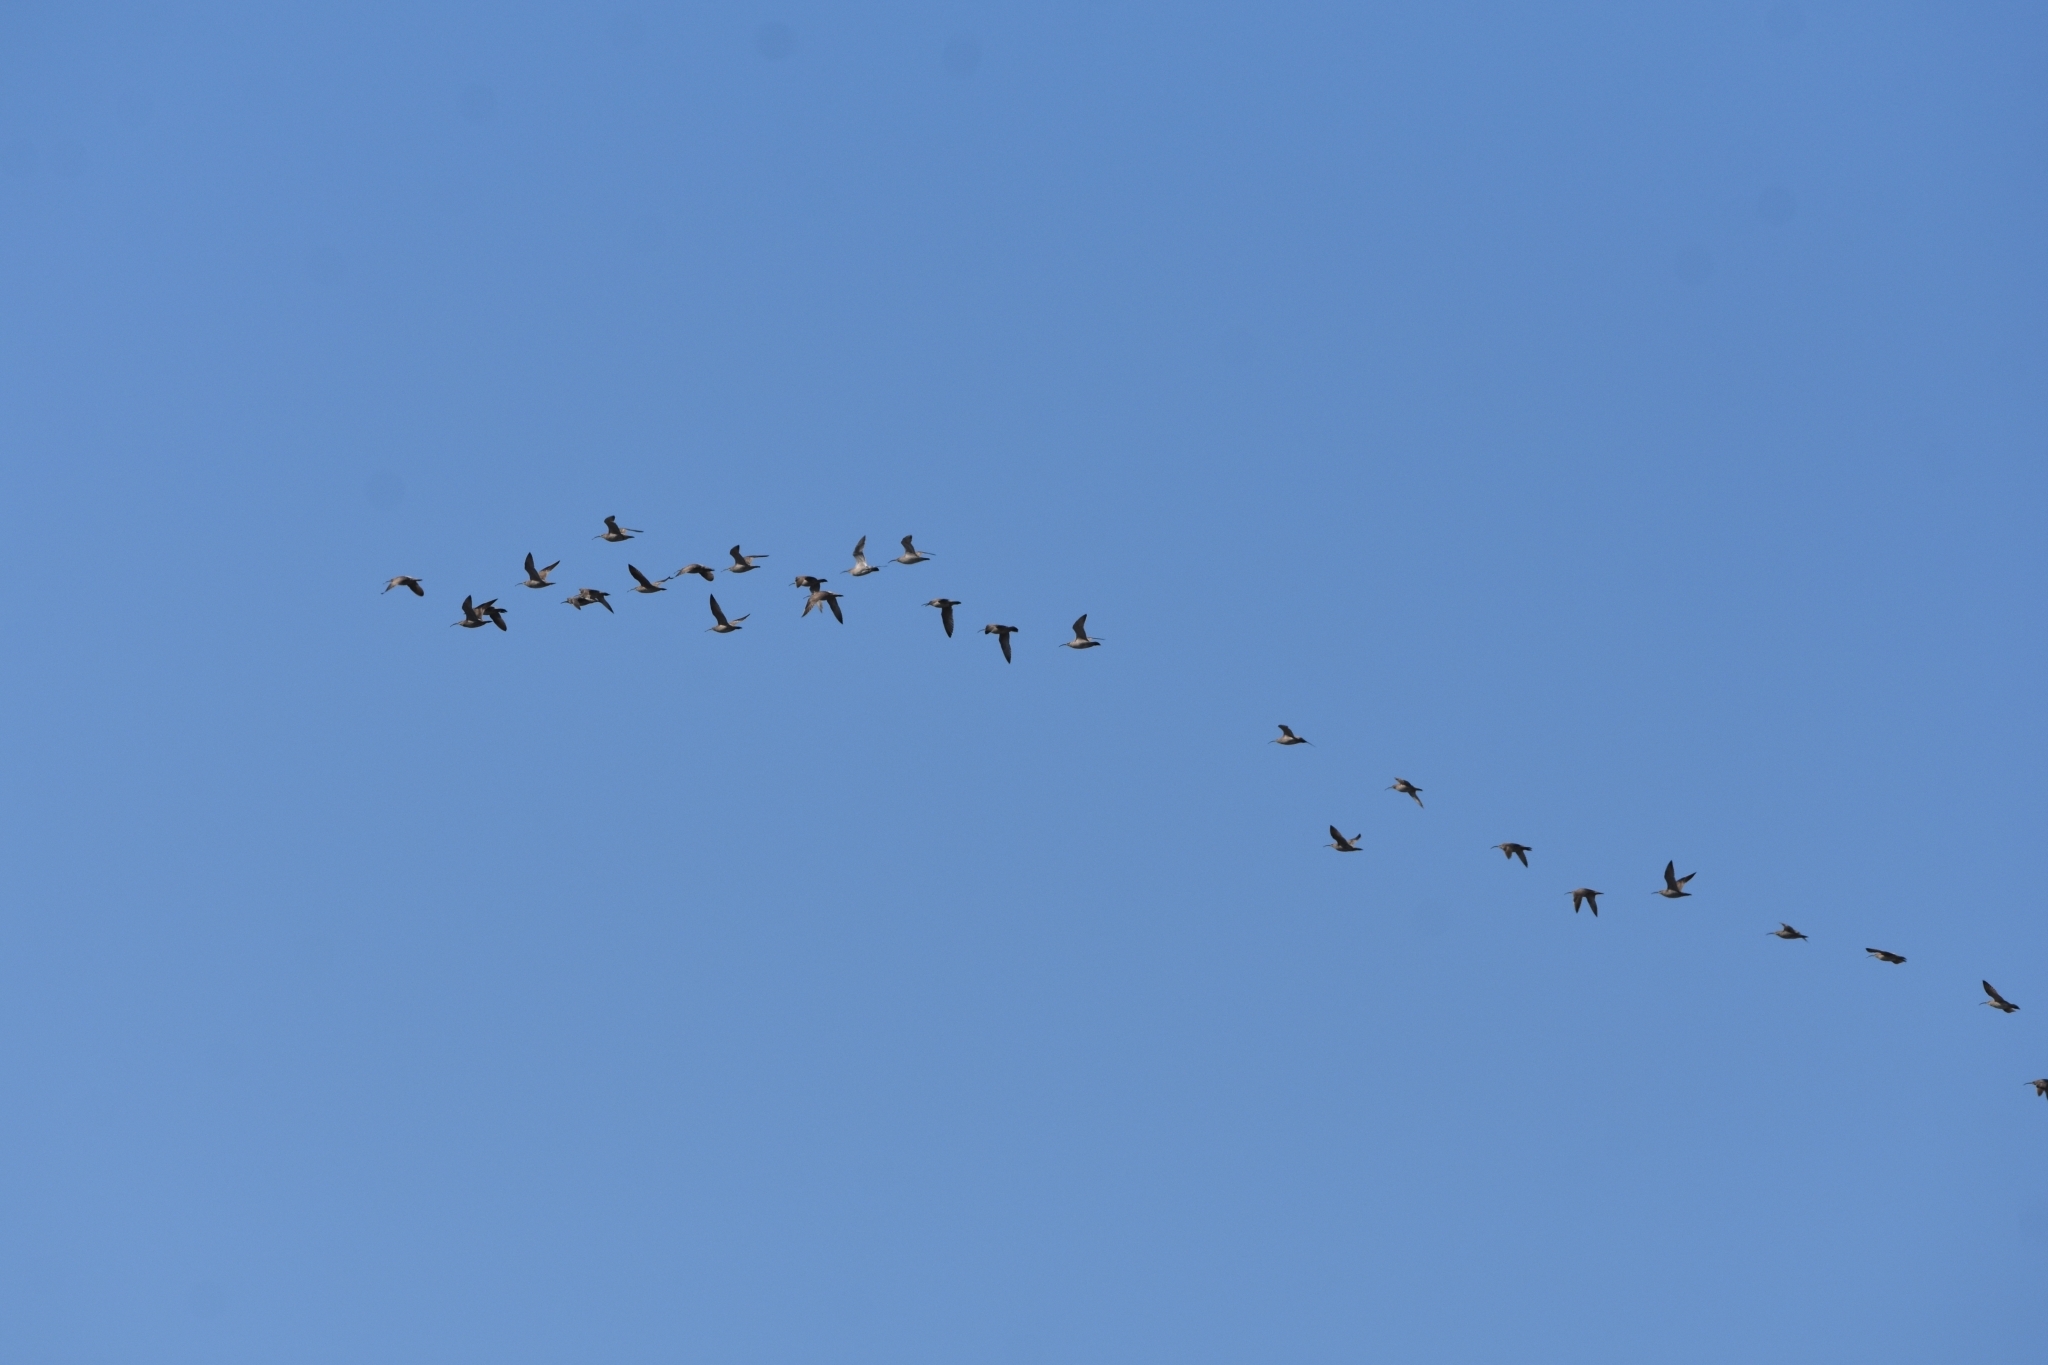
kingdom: Animalia
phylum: Chordata
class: Aves
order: Charadriiformes
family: Scolopacidae
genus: Numenius
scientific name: Numenius phaeopus
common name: Whimbrel
